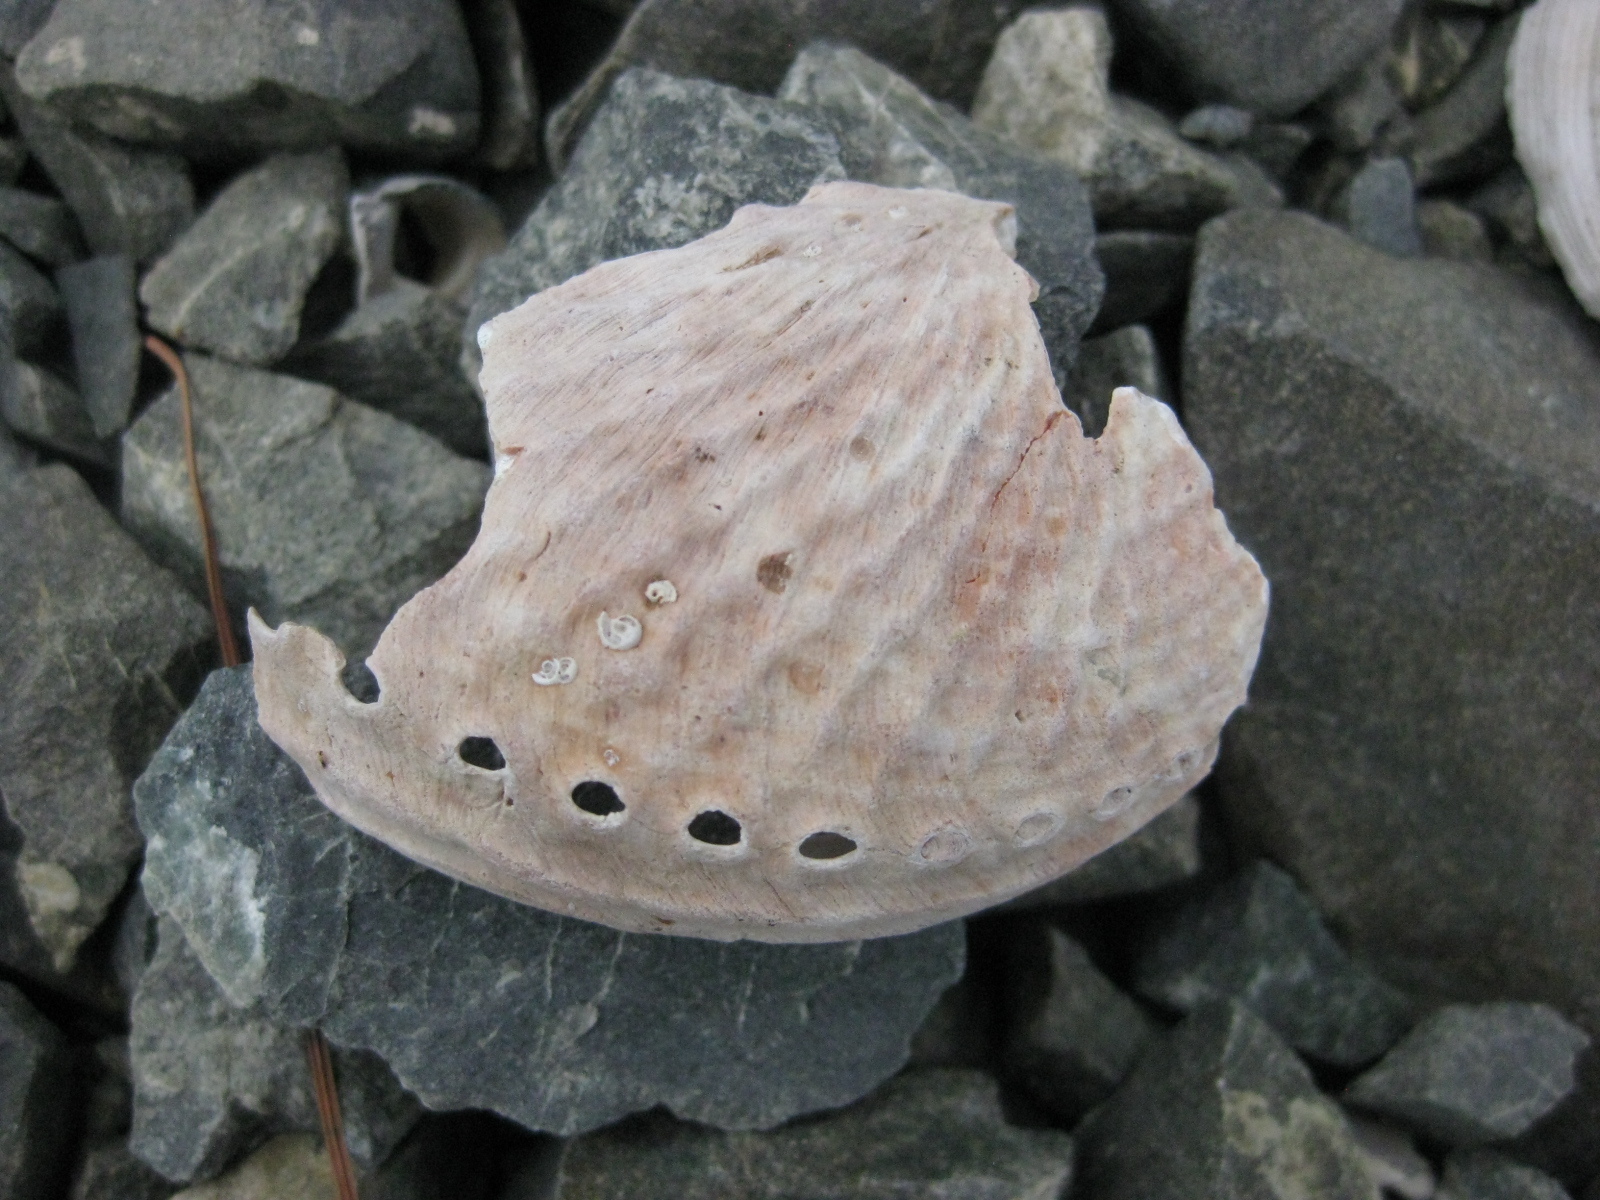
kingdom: Animalia
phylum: Mollusca
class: Gastropoda
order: Lepetellida
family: Haliotidae
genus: Haliotis
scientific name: Haliotis australis
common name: Silver abalone
